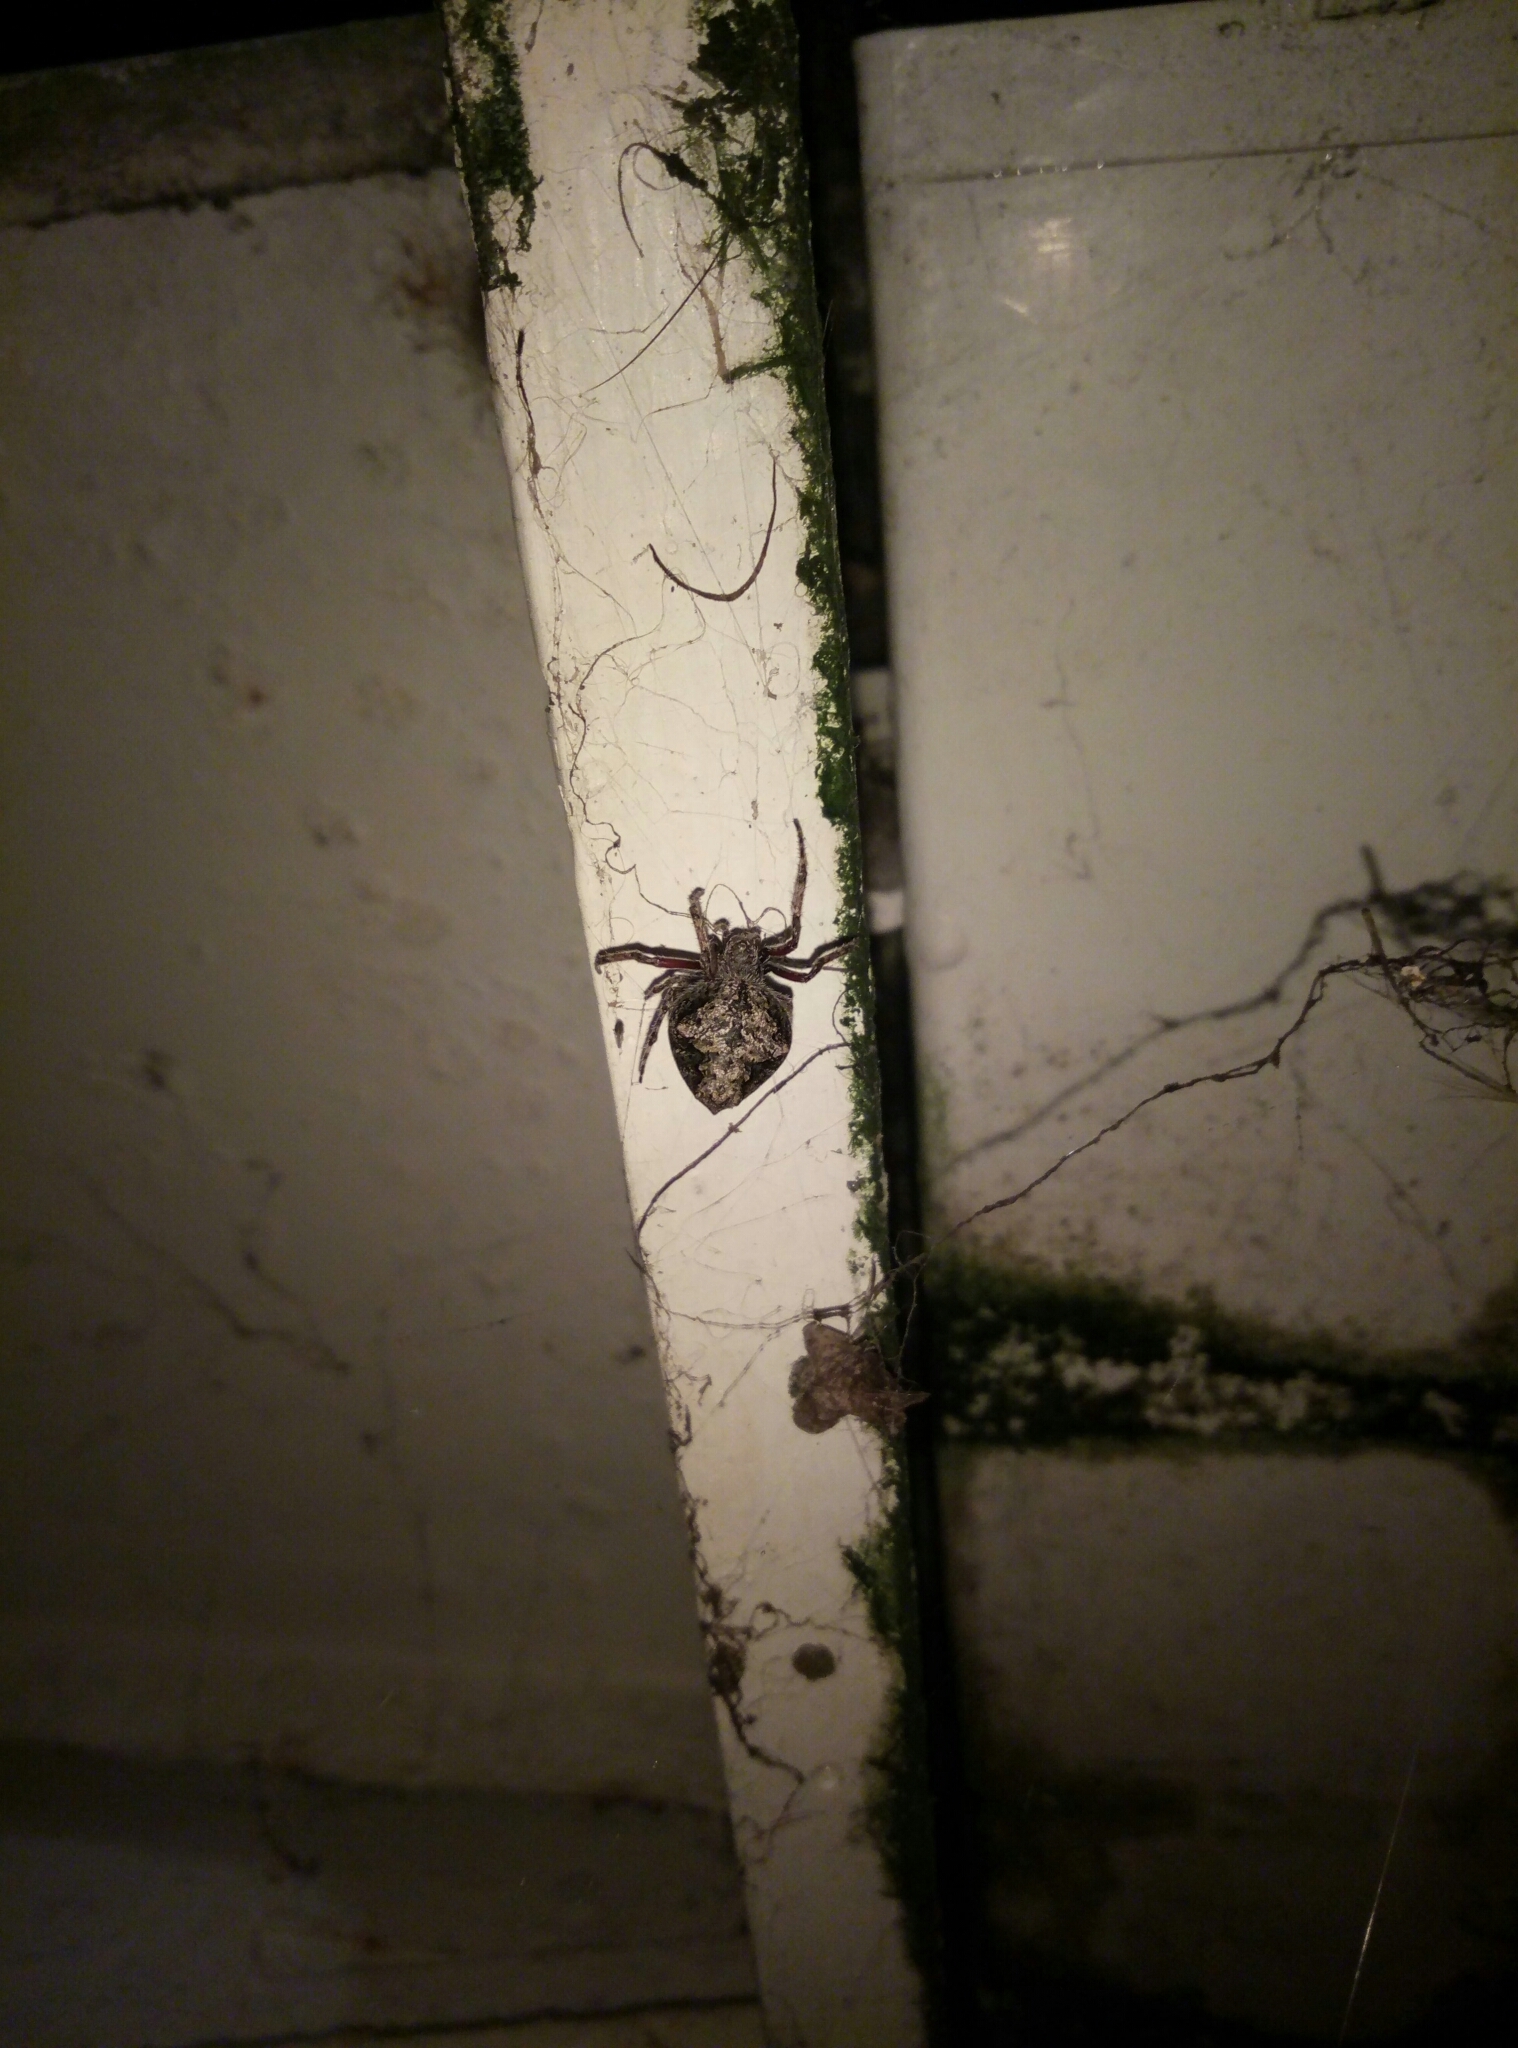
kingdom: Animalia
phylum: Arthropoda
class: Arachnida
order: Araneae
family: Araneidae
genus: Eriophora
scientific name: Eriophora pustulosa
